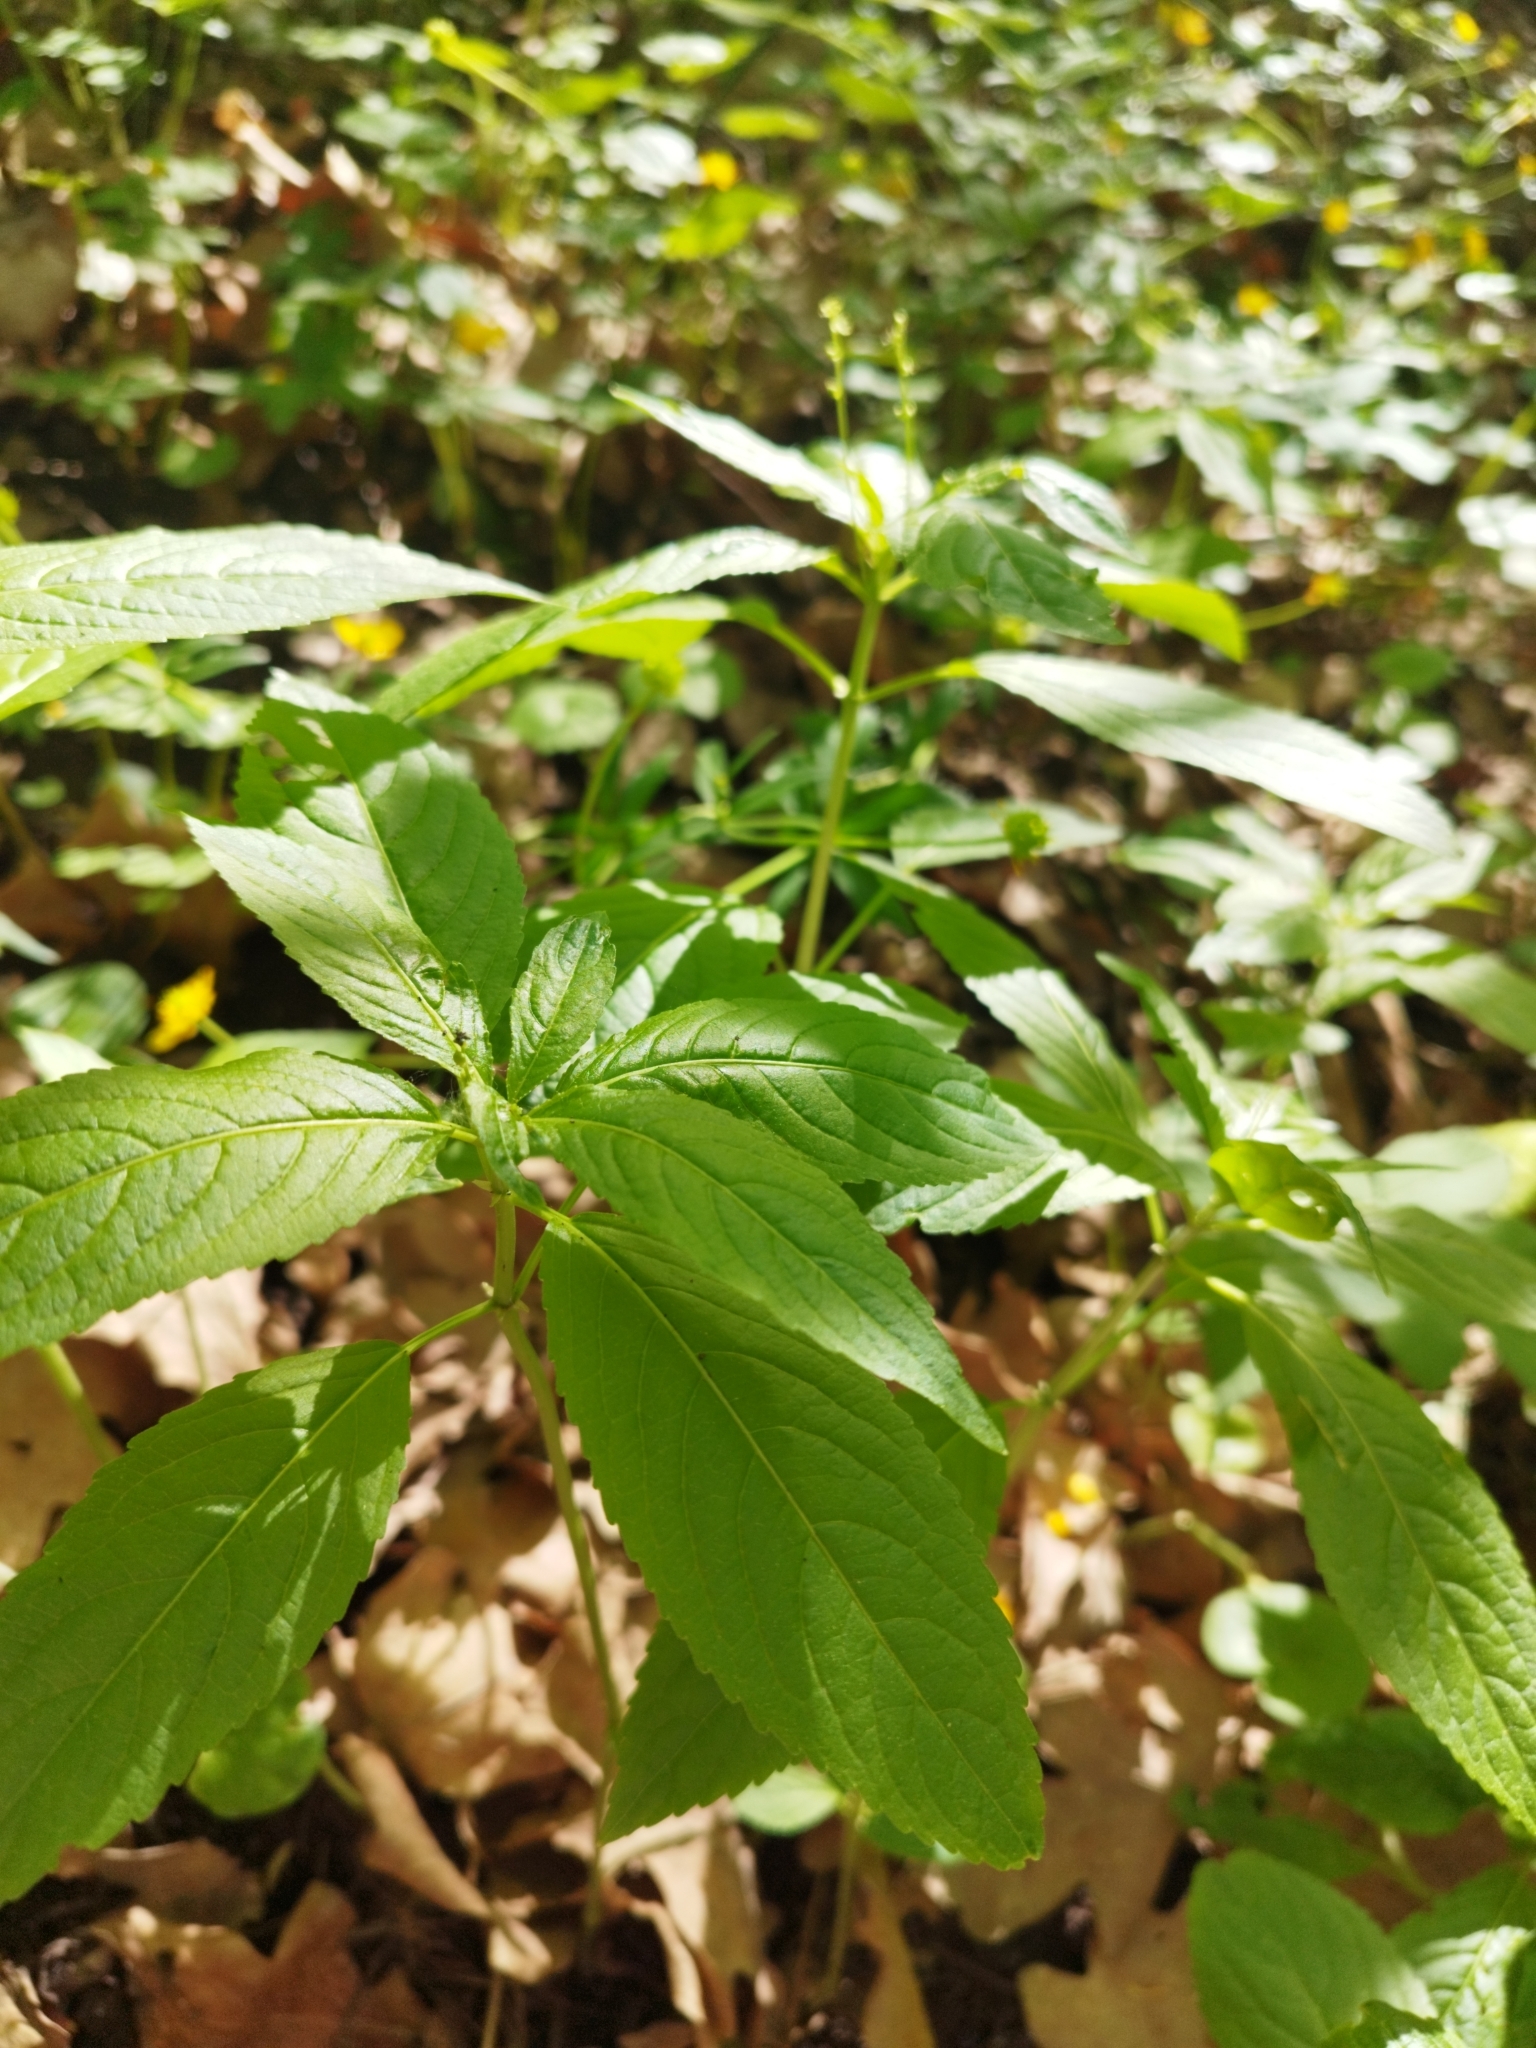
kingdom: Plantae
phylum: Tracheophyta
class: Magnoliopsida
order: Malpighiales
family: Euphorbiaceae
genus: Mercurialis
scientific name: Mercurialis perennis
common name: Dog mercury
